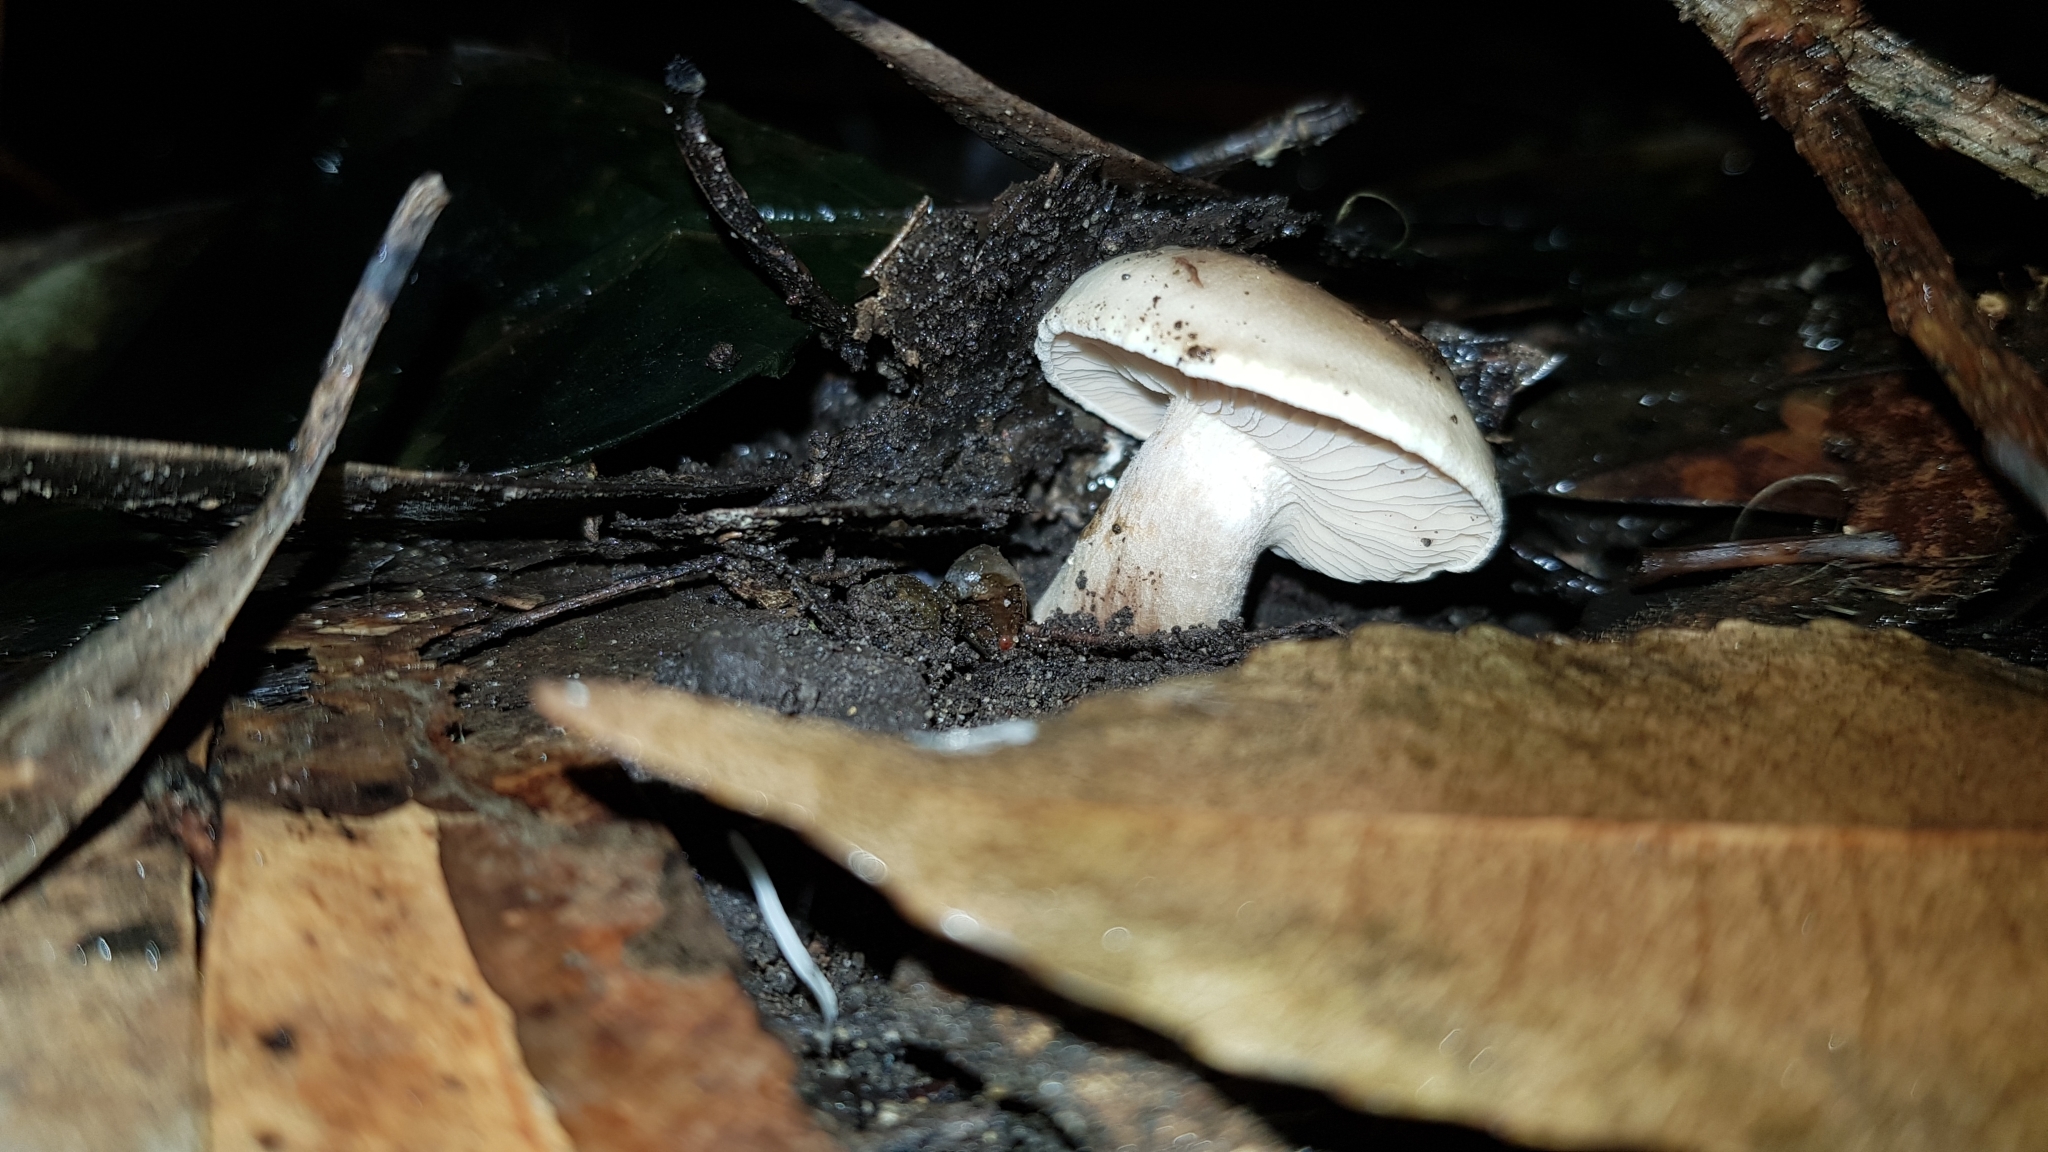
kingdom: Fungi
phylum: Basidiomycota
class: Agaricomycetes
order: Agaricales
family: Amanitaceae
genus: Limacella
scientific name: Limacella pitereka
